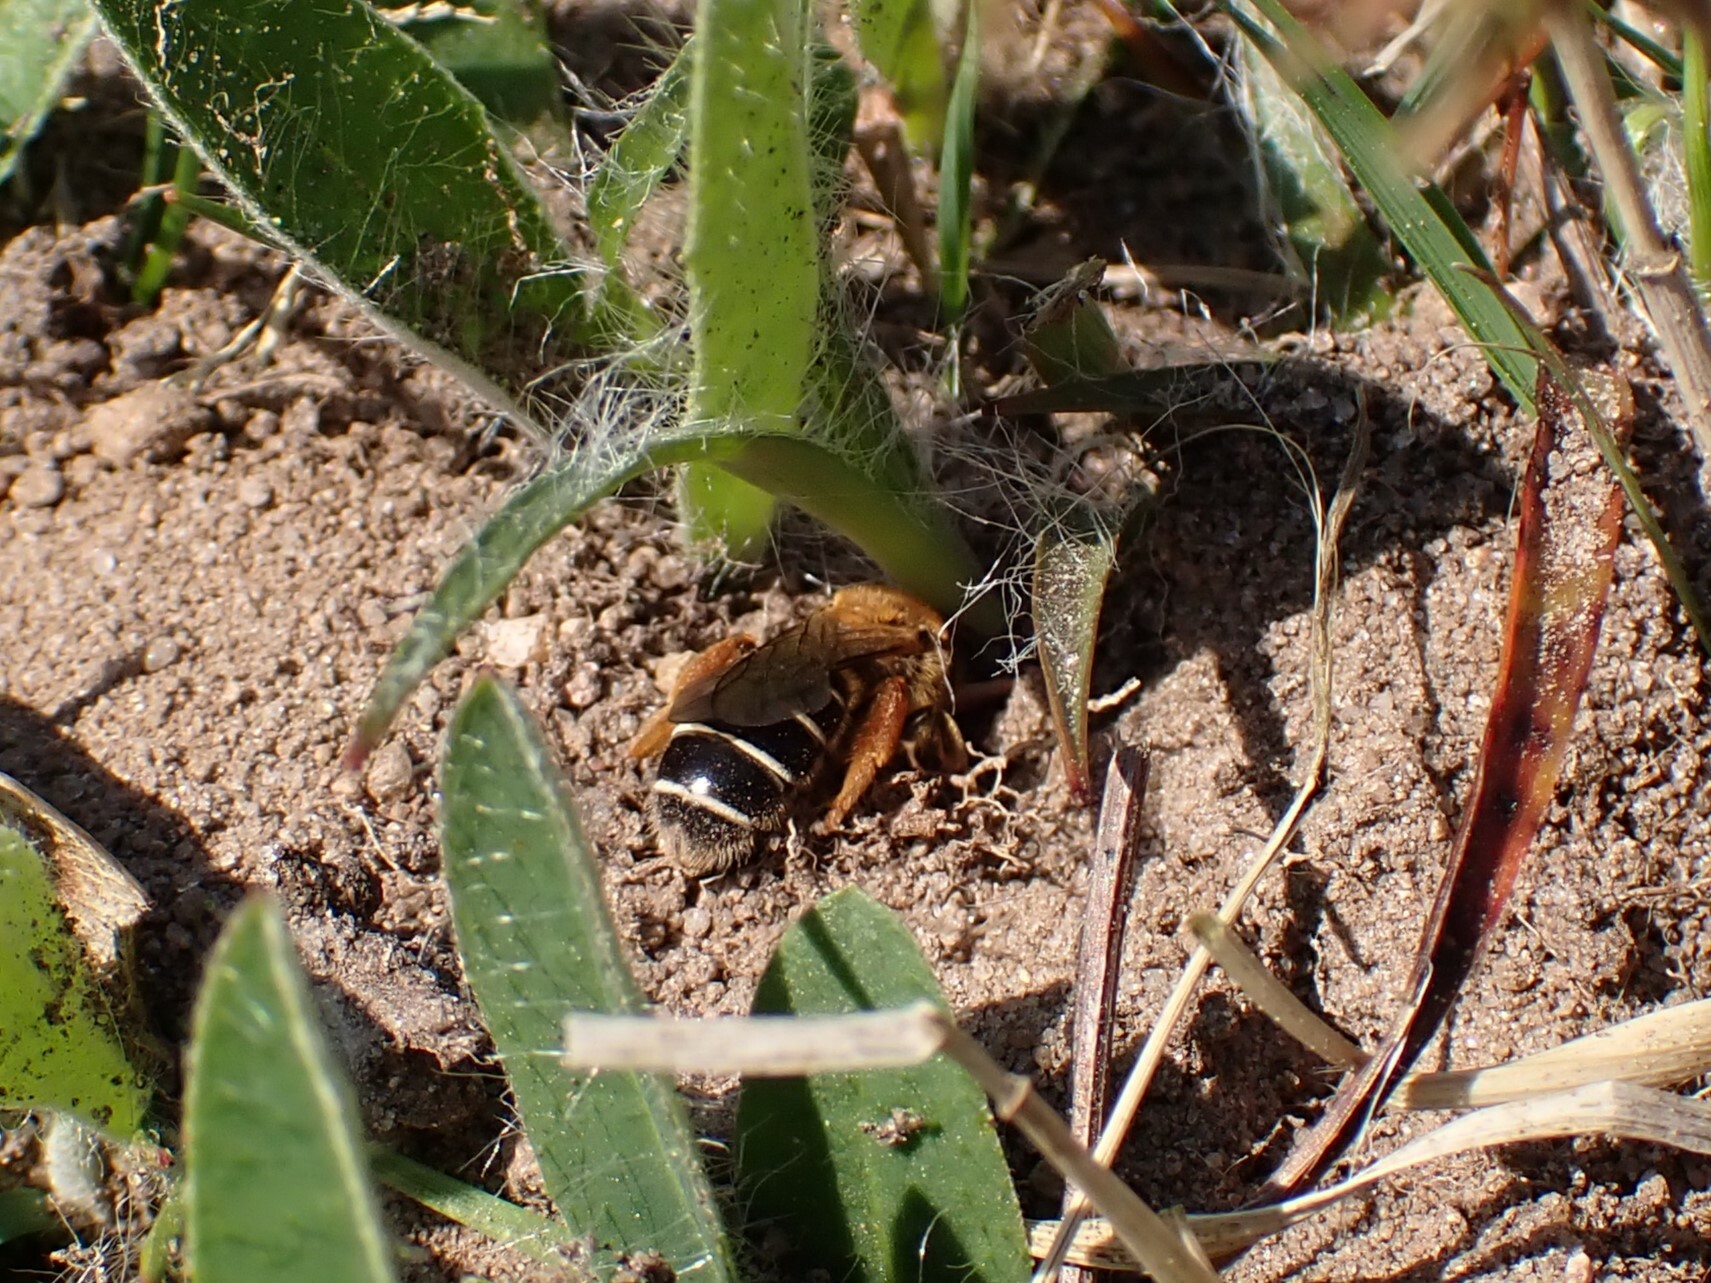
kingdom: Animalia
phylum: Arthropoda
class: Insecta
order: Hymenoptera
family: Halictidae
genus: Halictus
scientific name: Halictus rubicundus
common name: Orange-legged furrow bee
